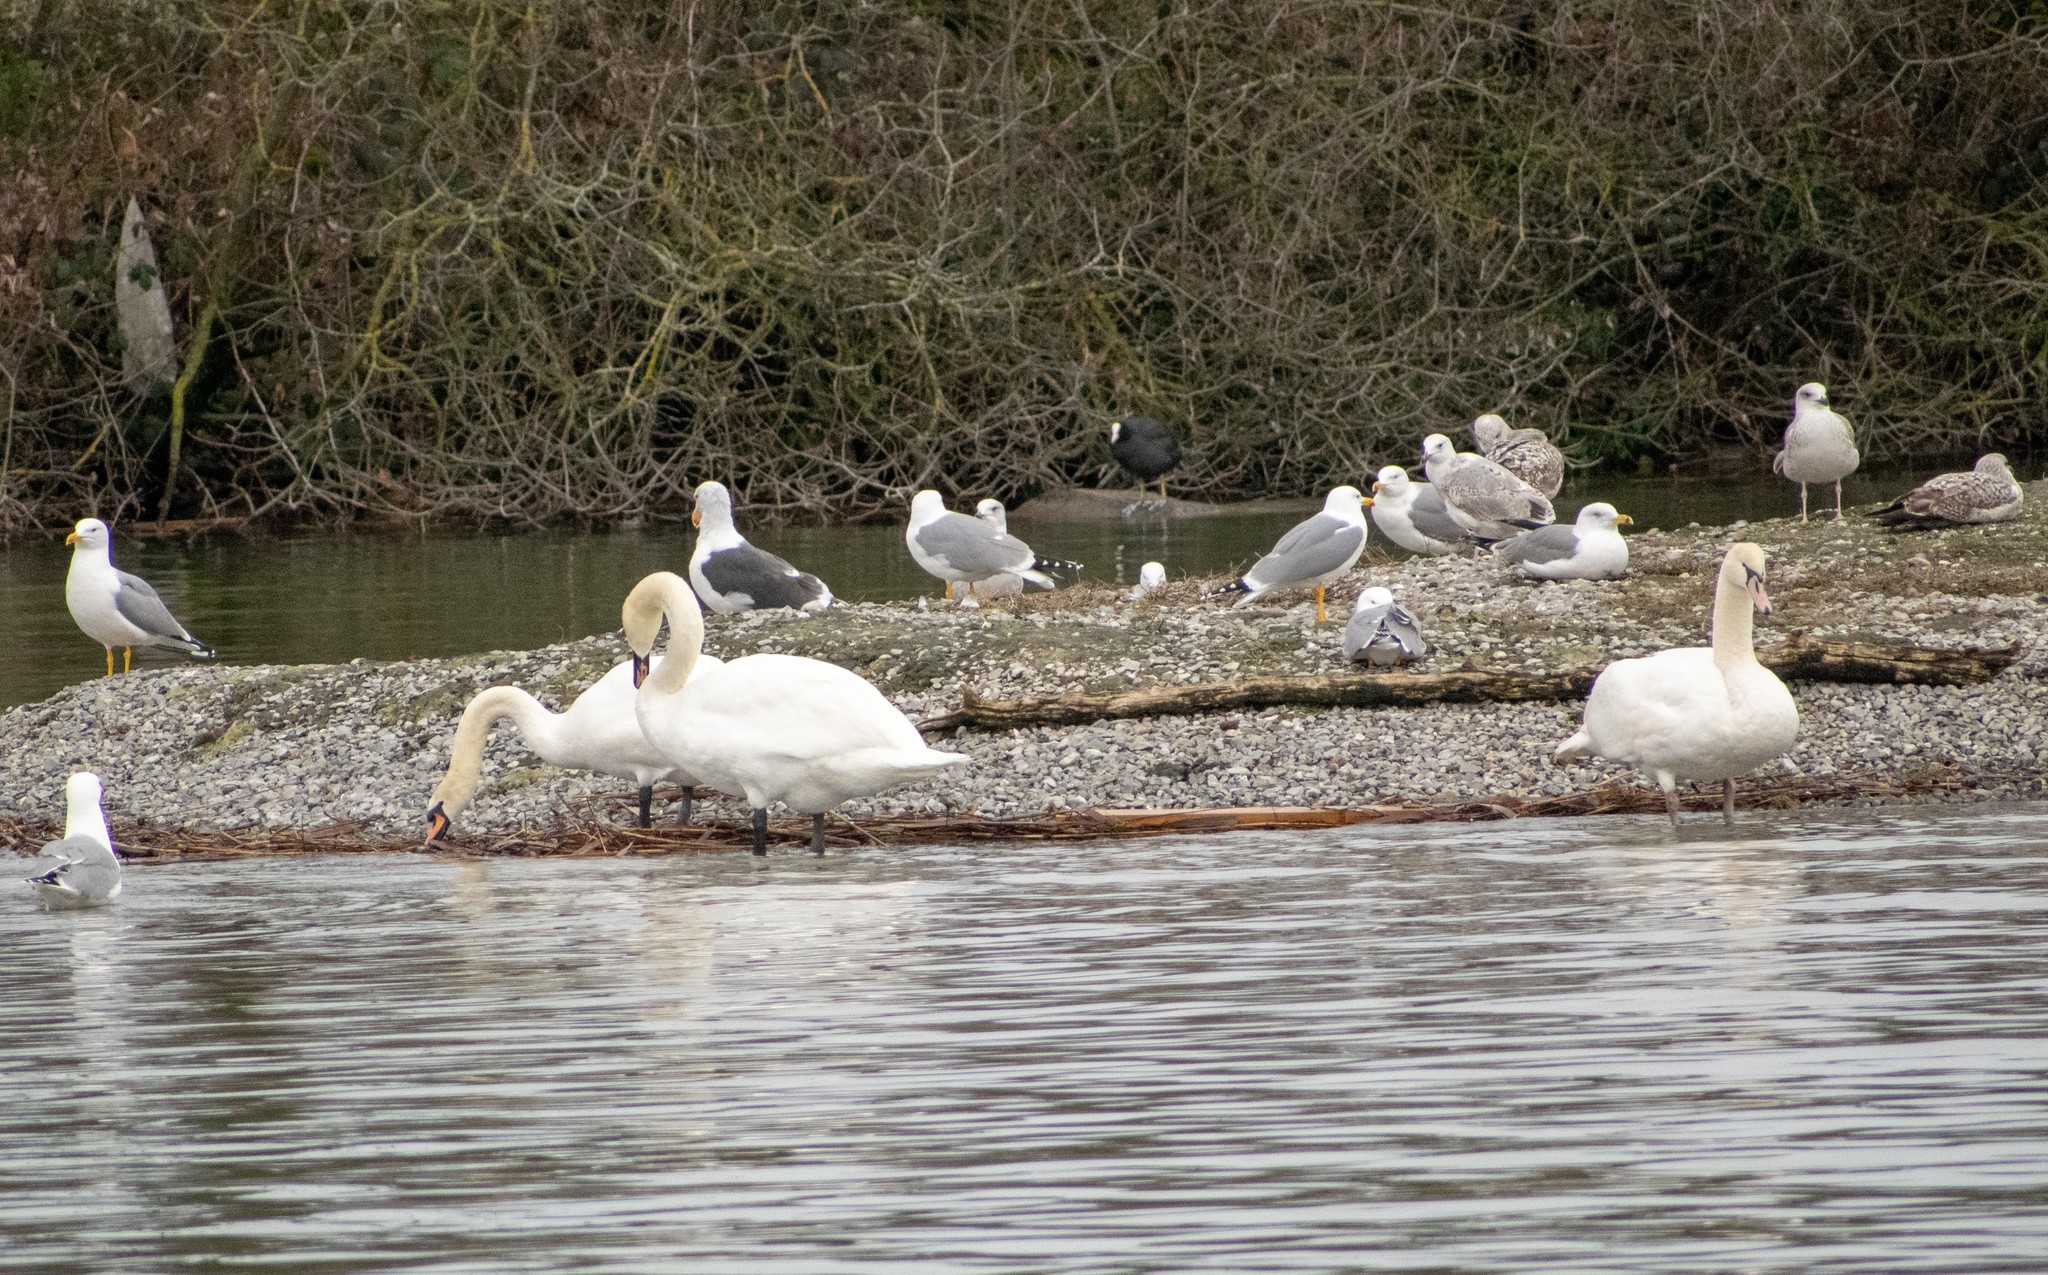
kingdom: Animalia
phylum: Chordata
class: Aves
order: Anseriformes
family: Anatidae
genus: Cygnus
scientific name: Cygnus olor
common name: Mute swan
